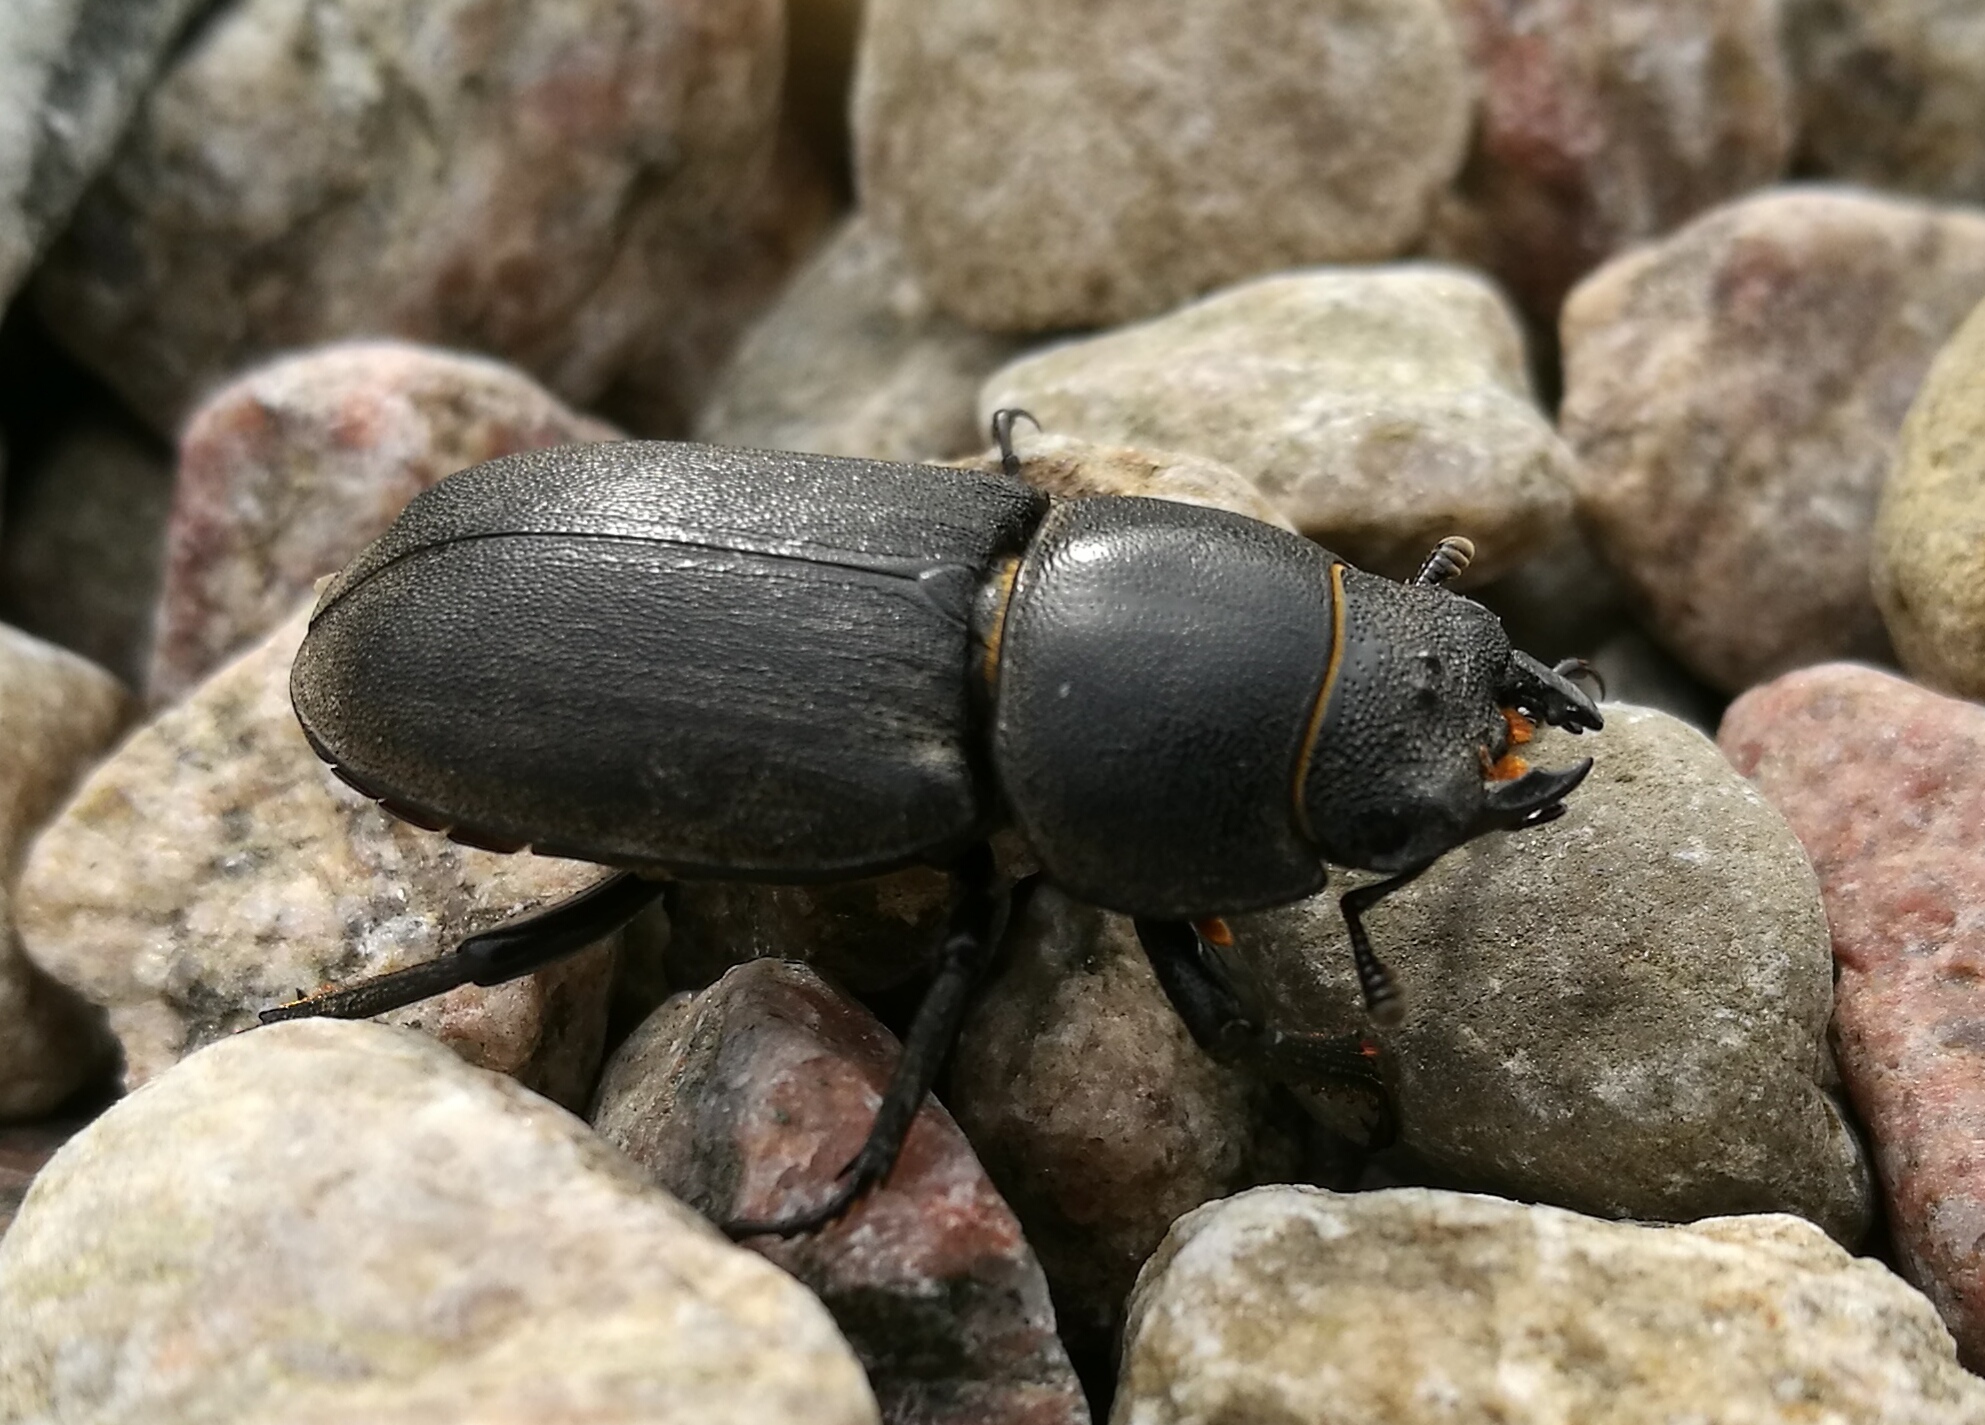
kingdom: Animalia
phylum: Arthropoda
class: Insecta
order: Coleoptera
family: Lucanidae
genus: Dorcus
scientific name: Dorcus parallelipipedus
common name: Lesser stag beetle
